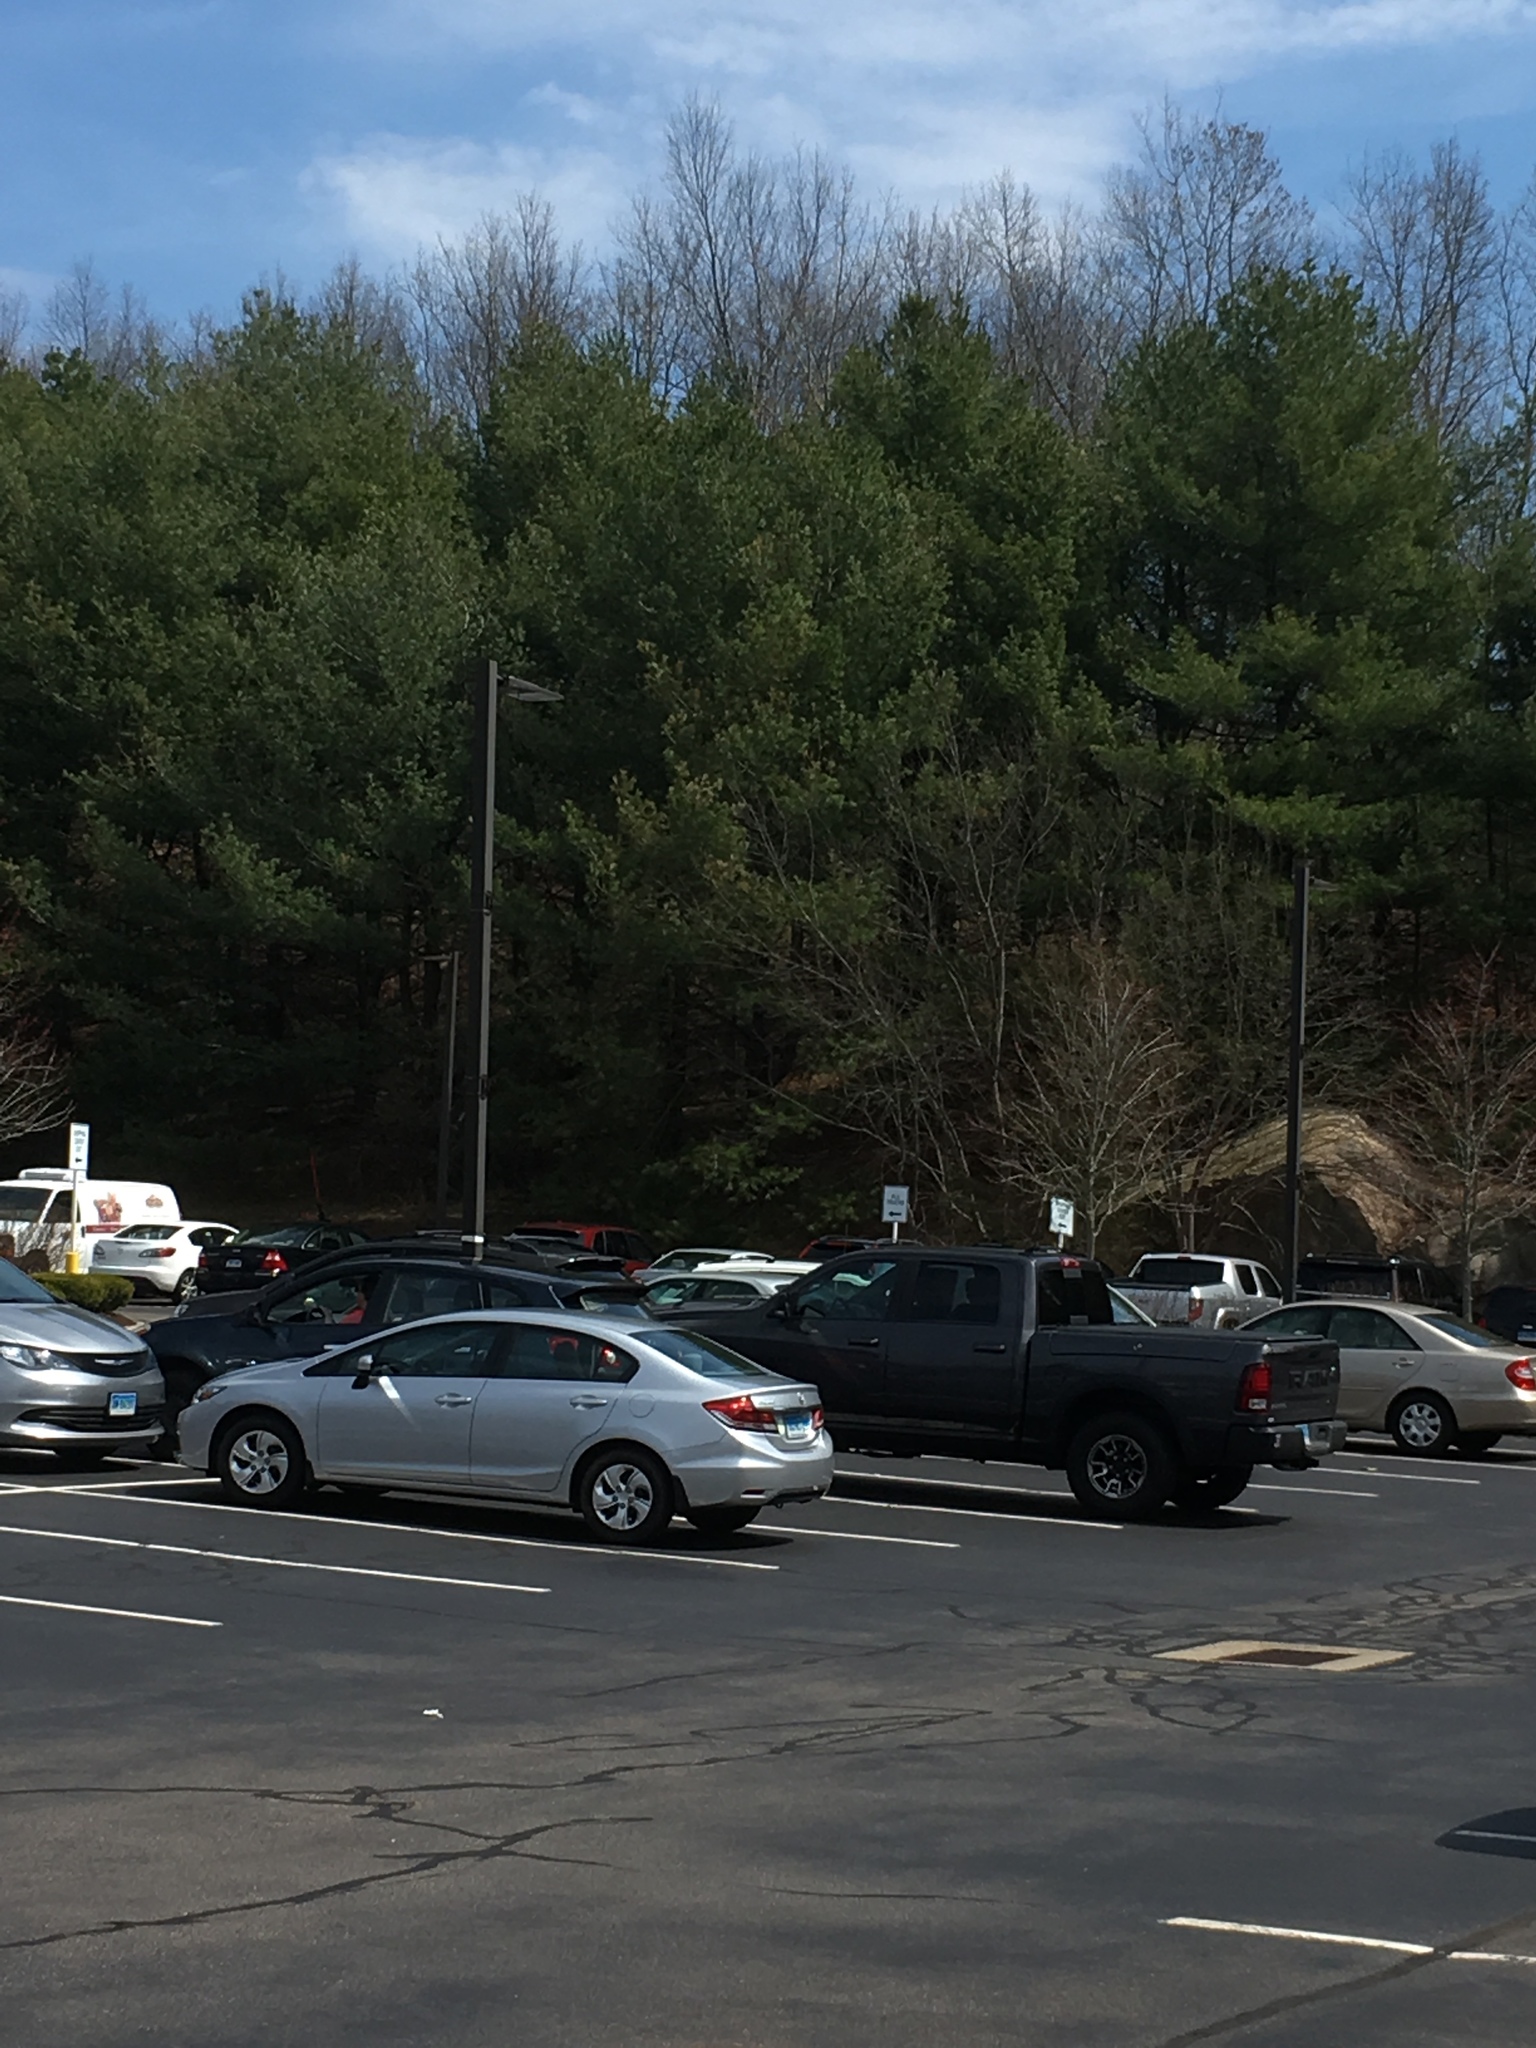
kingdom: Plantae
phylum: Tracheophyta
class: Pinopsida
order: Pinales
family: Pinaceae
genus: Pinus
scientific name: Pinus strobus
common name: Weymouth pine
